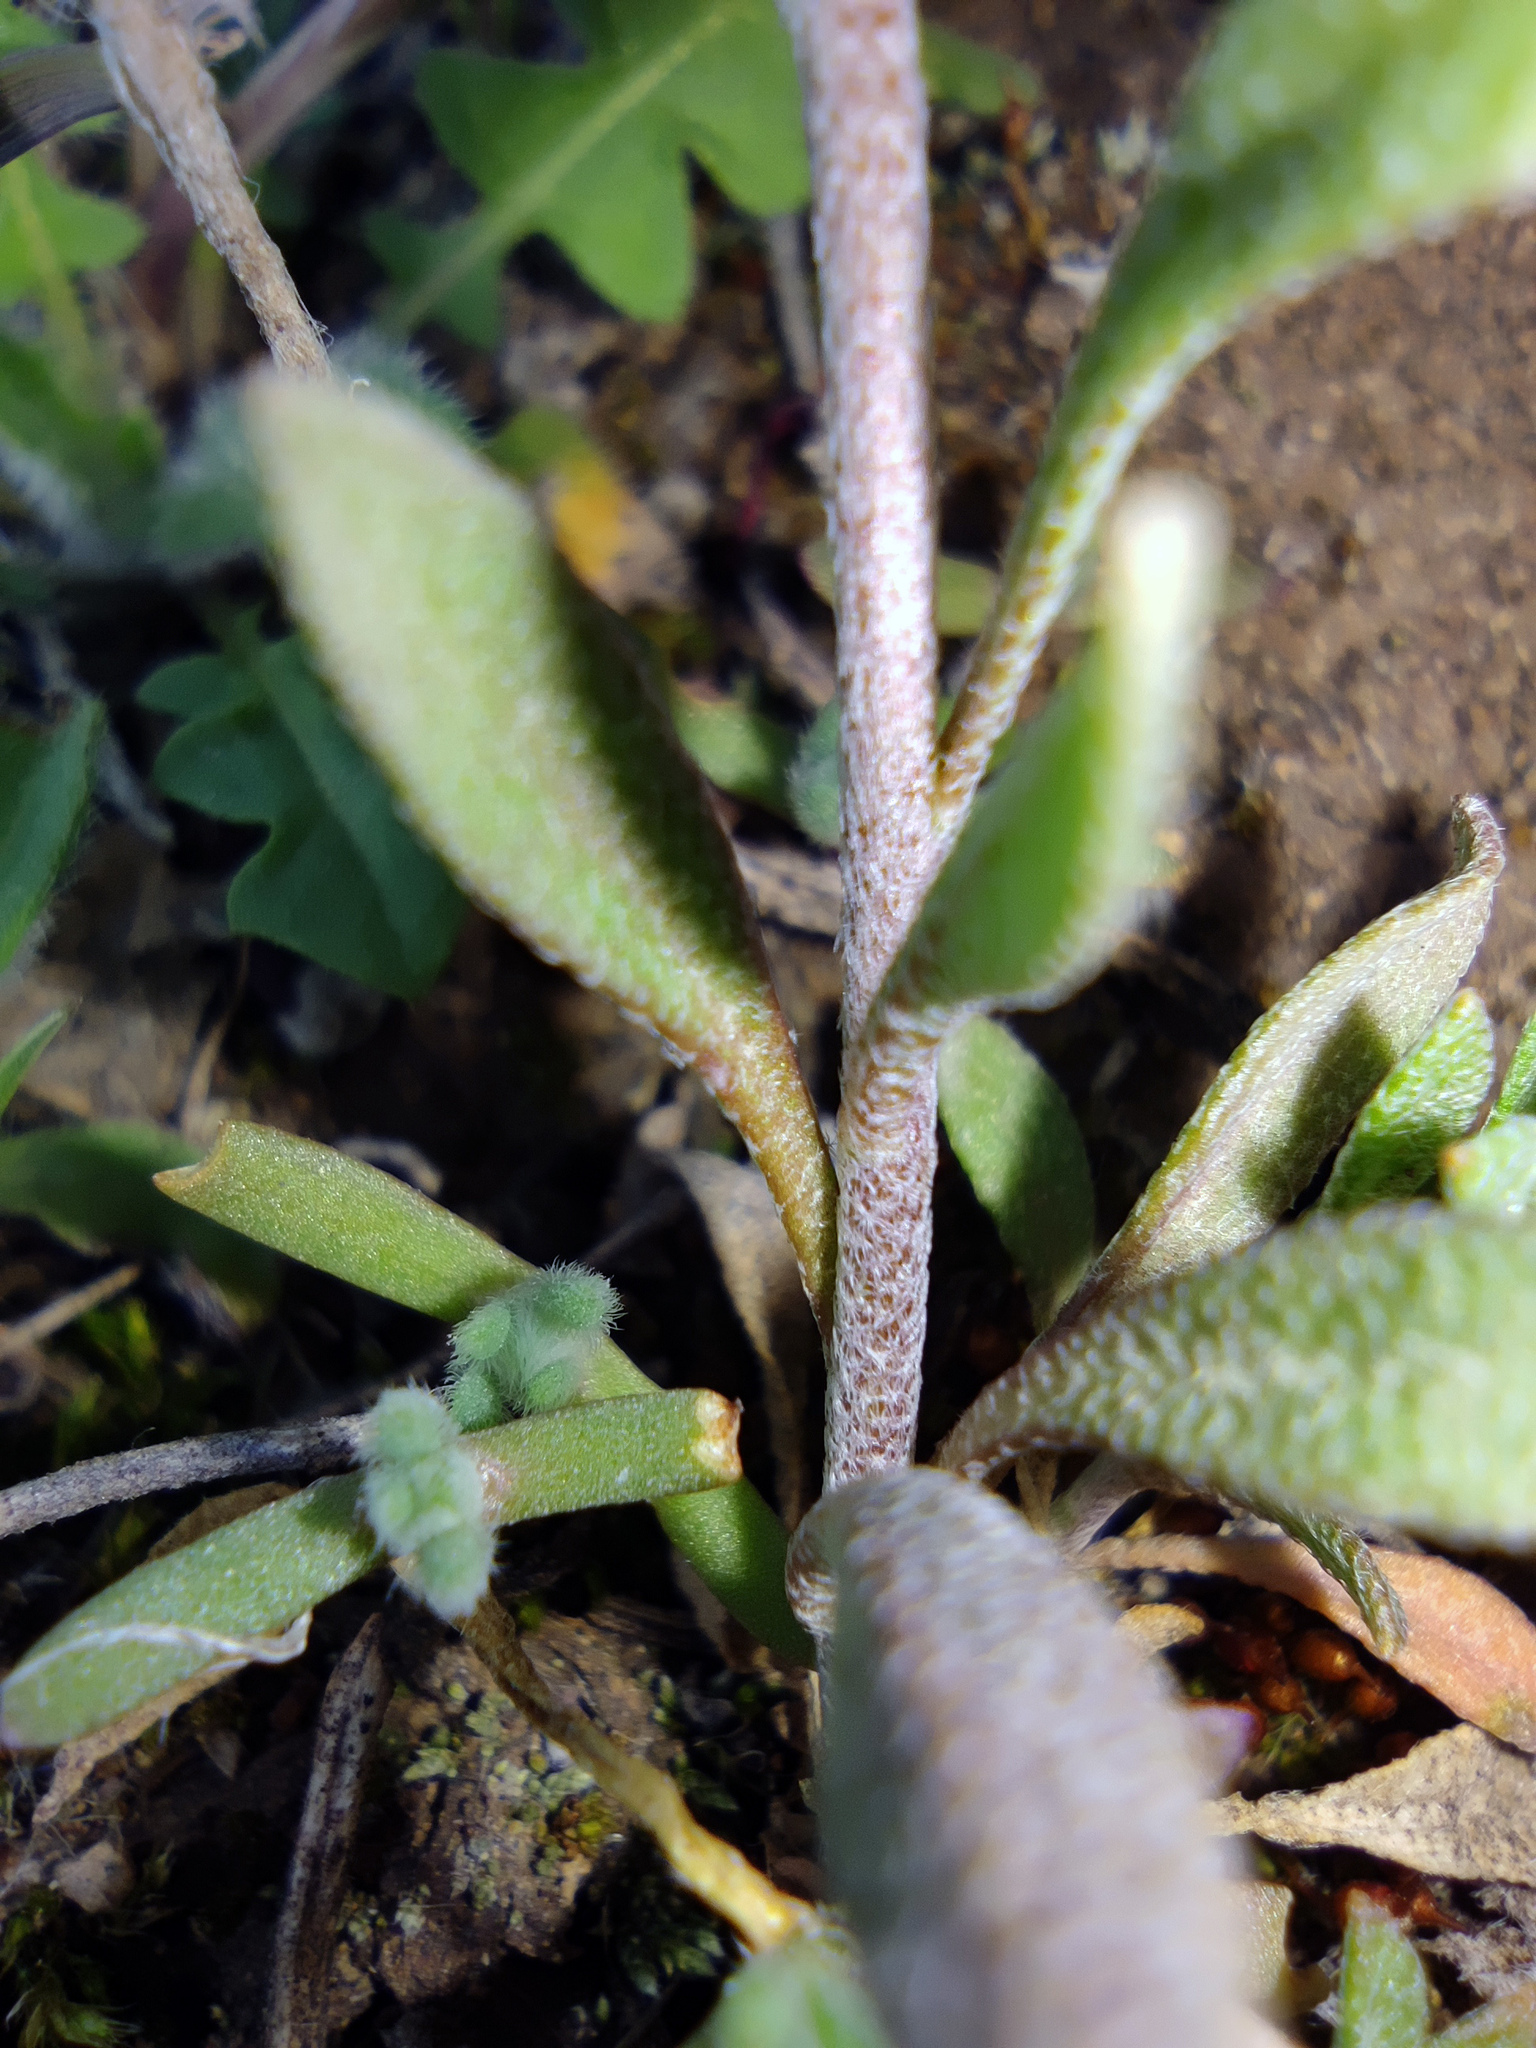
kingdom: Plantae
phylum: Tracheophyta
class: Magnoliopsida
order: Brassicales
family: Brassicaceae
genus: Alyssum
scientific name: Alyssum turkestanicum
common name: Desert alyssum
